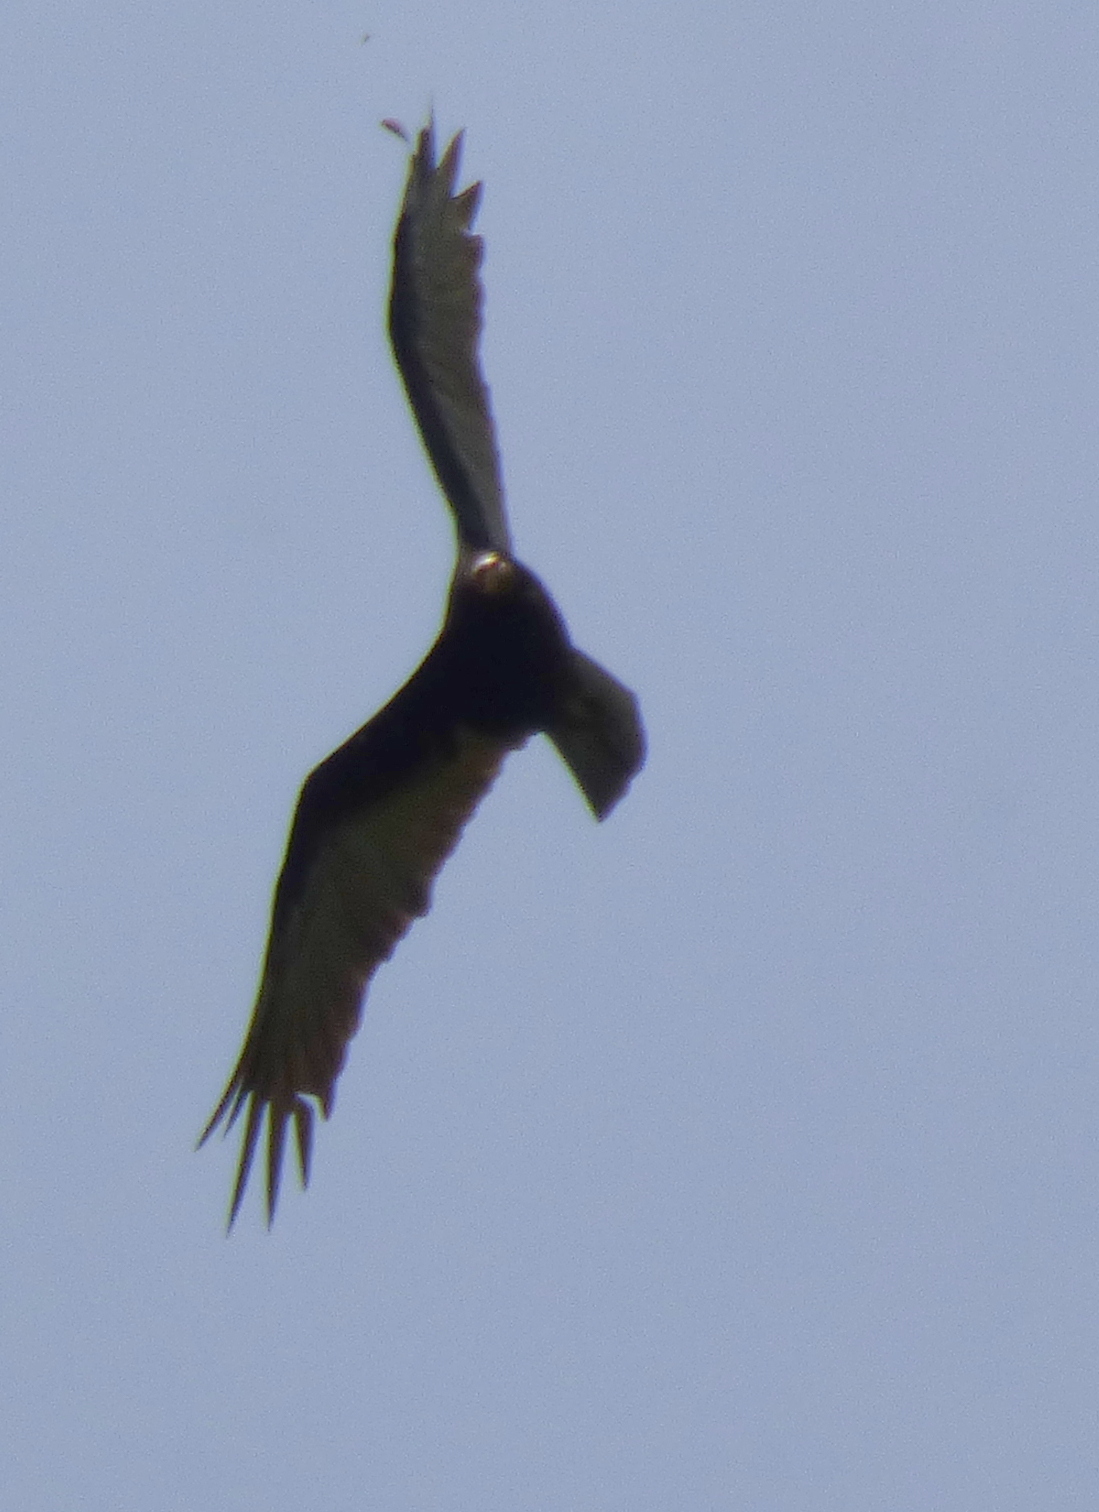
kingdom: Animalia
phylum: Chordata
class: Aves
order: Accipitriformes
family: Cathartidae
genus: Cathartes
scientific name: Cathartes burrovianus
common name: Lesser yellow-headed vulture
